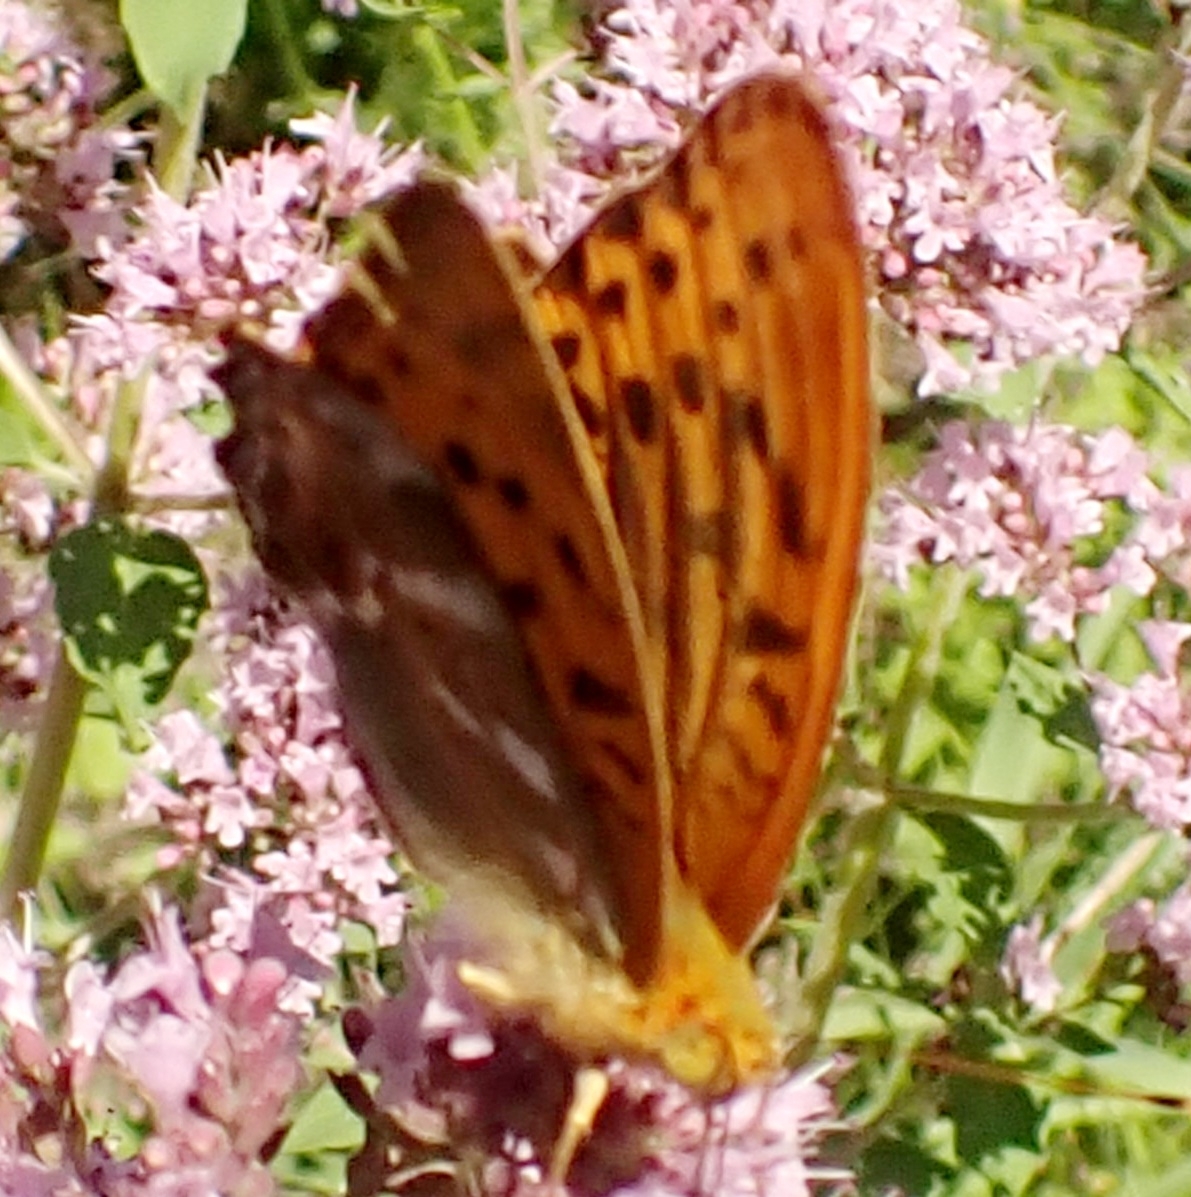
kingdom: Animalia
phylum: Arthropoda
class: Insecta
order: Lepidoptera
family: Nymphalidae
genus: Argynnis
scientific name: Argynnis paphia
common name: Silver-washed fritillary
